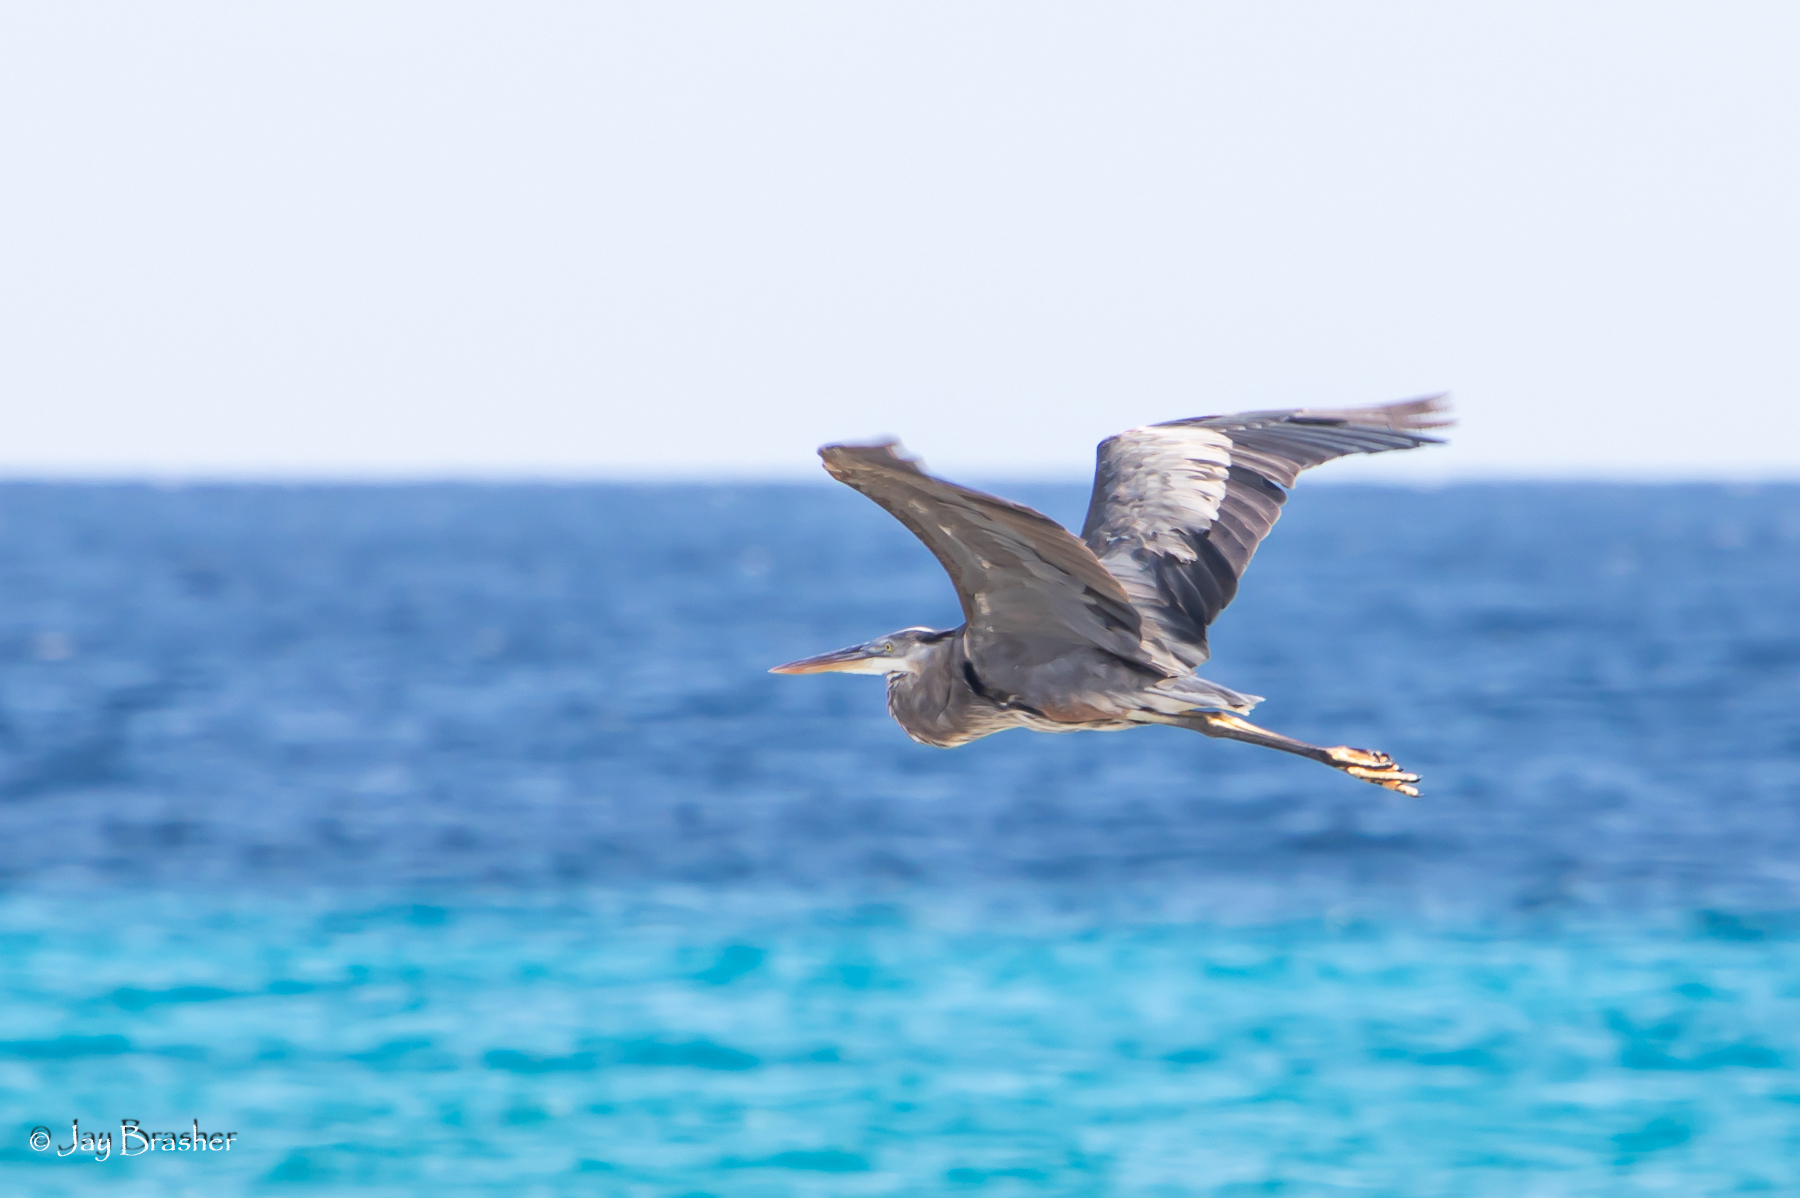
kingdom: Animalia
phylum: Chordata
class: Aves
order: Pelecaniformes
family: Ardeidae
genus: Ardea
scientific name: Ardea herodias
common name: Great blue heron
